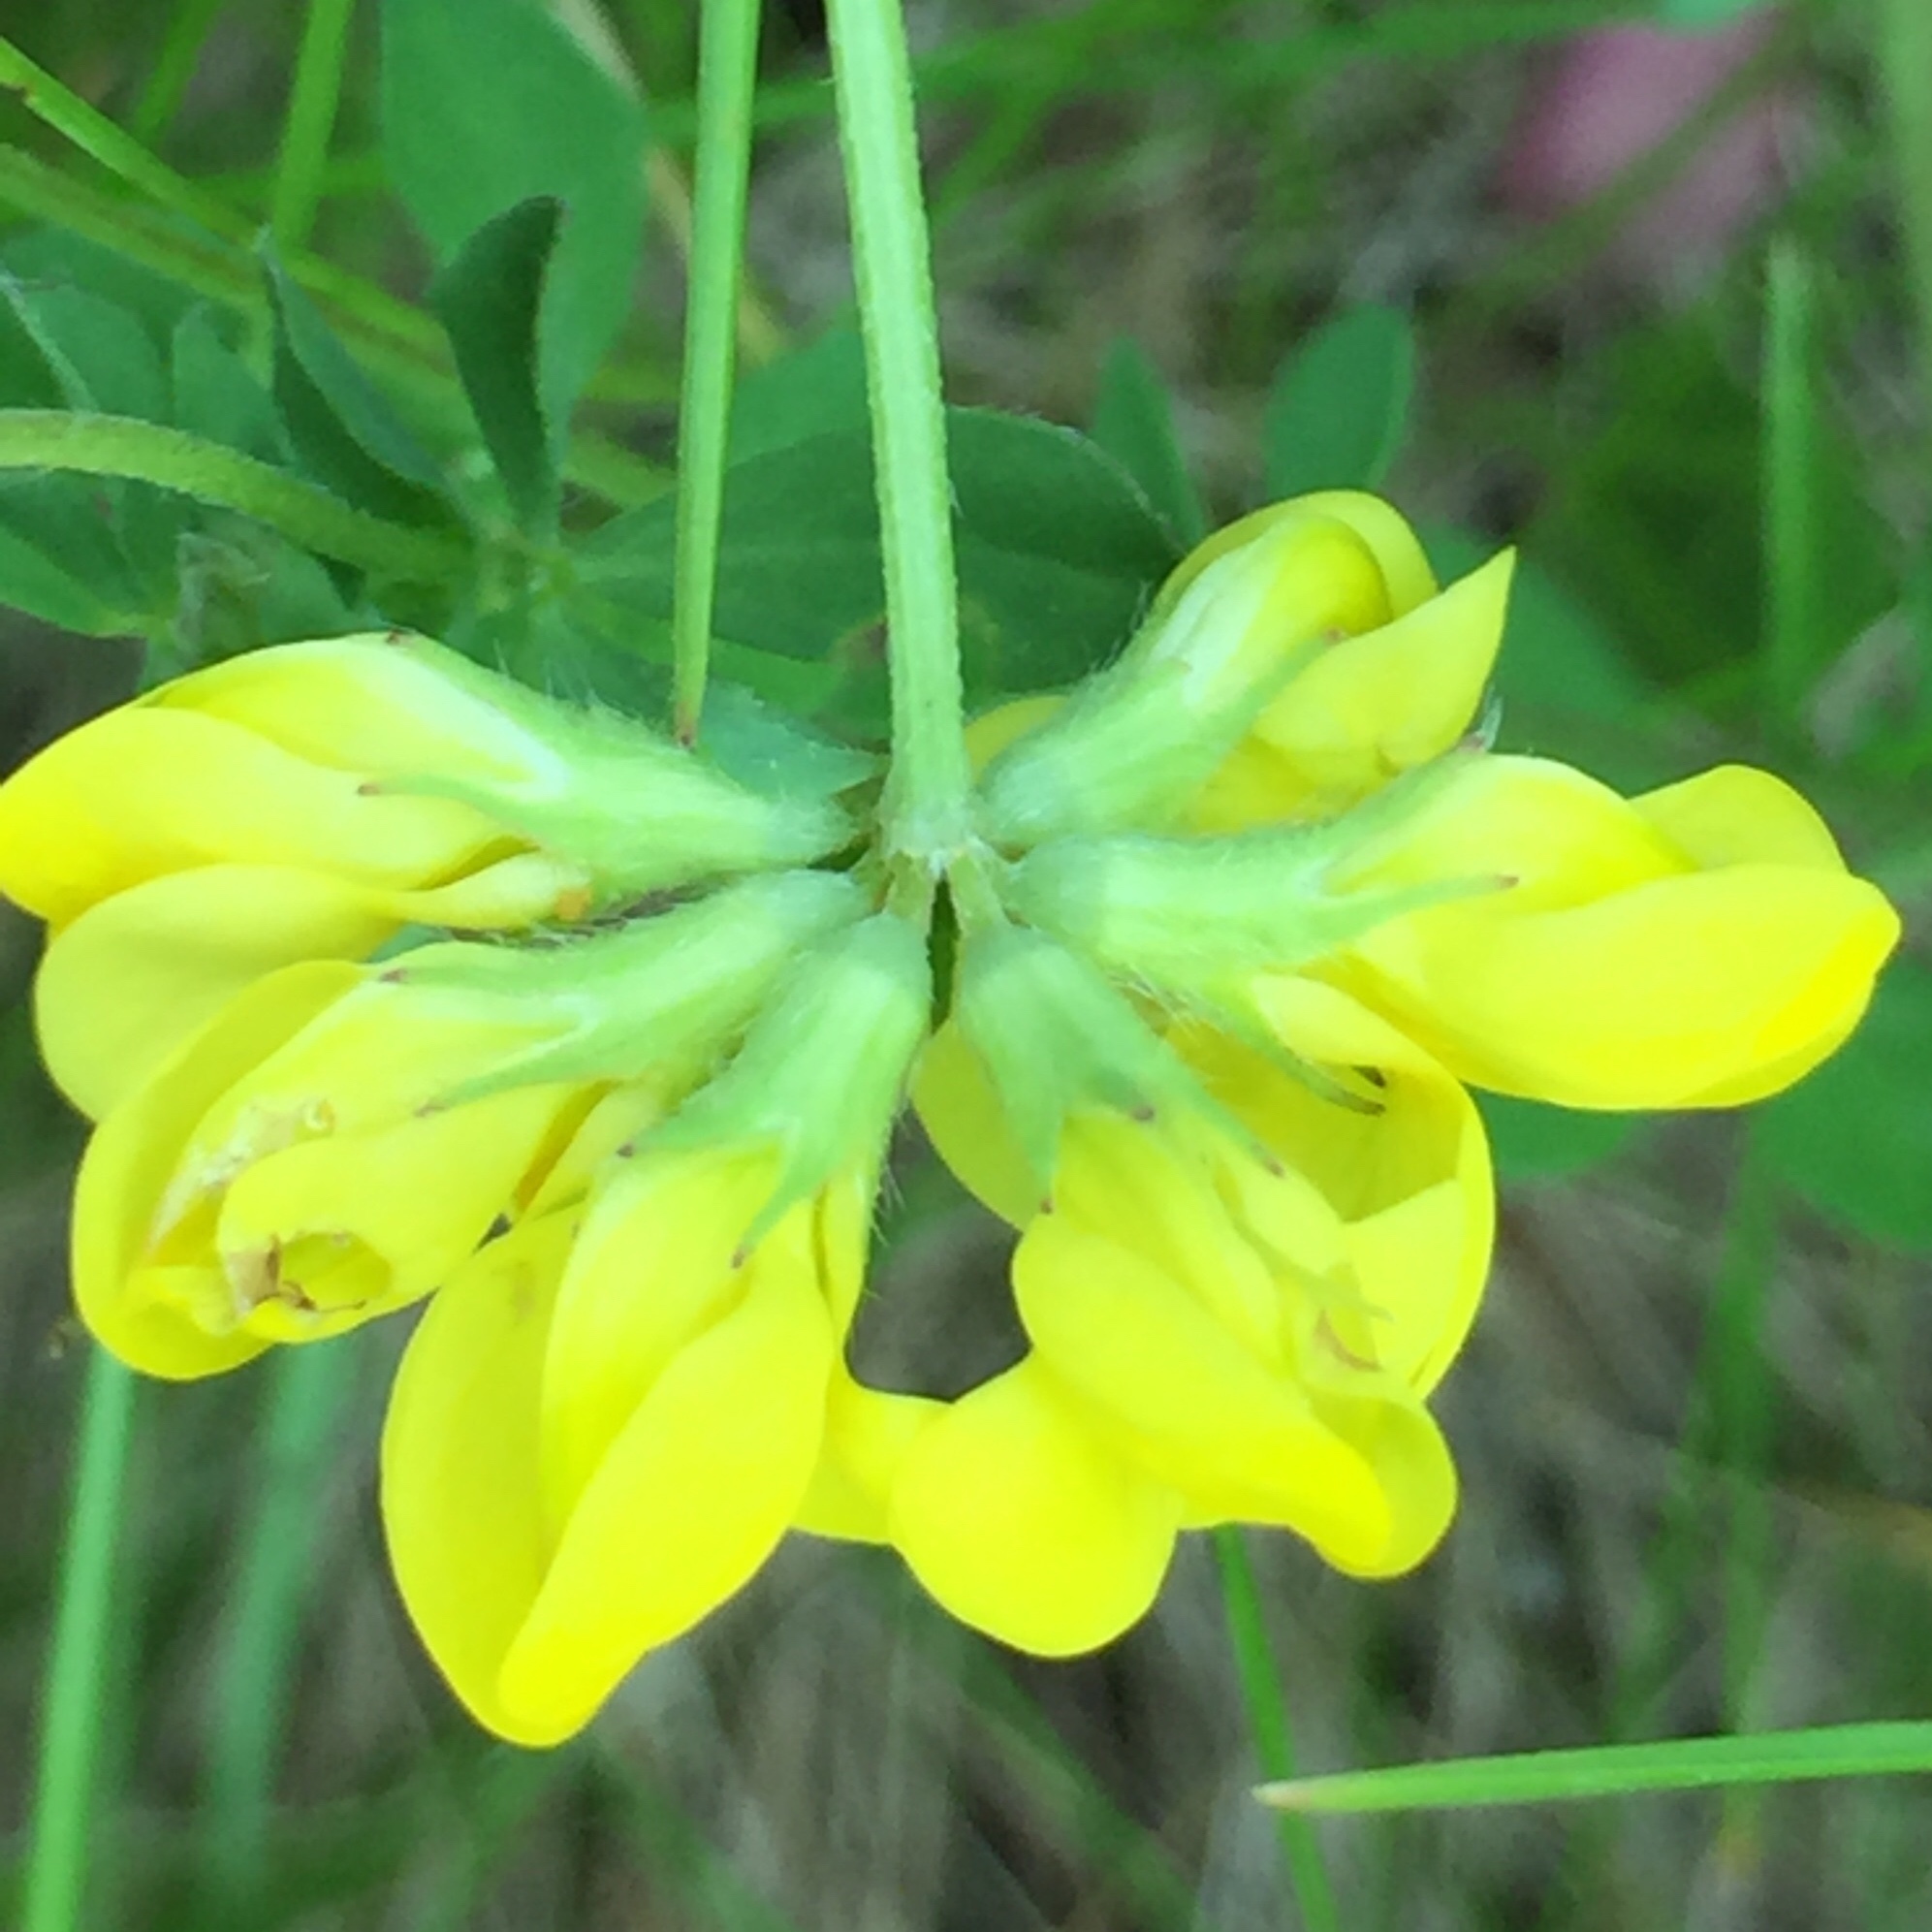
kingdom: Plantae
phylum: Tracheophyta
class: Magnoliopsida
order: Fabales
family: Fabaceae
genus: Lotus
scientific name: Lotus corniculatus
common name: Common bird's-foot-trefoil
